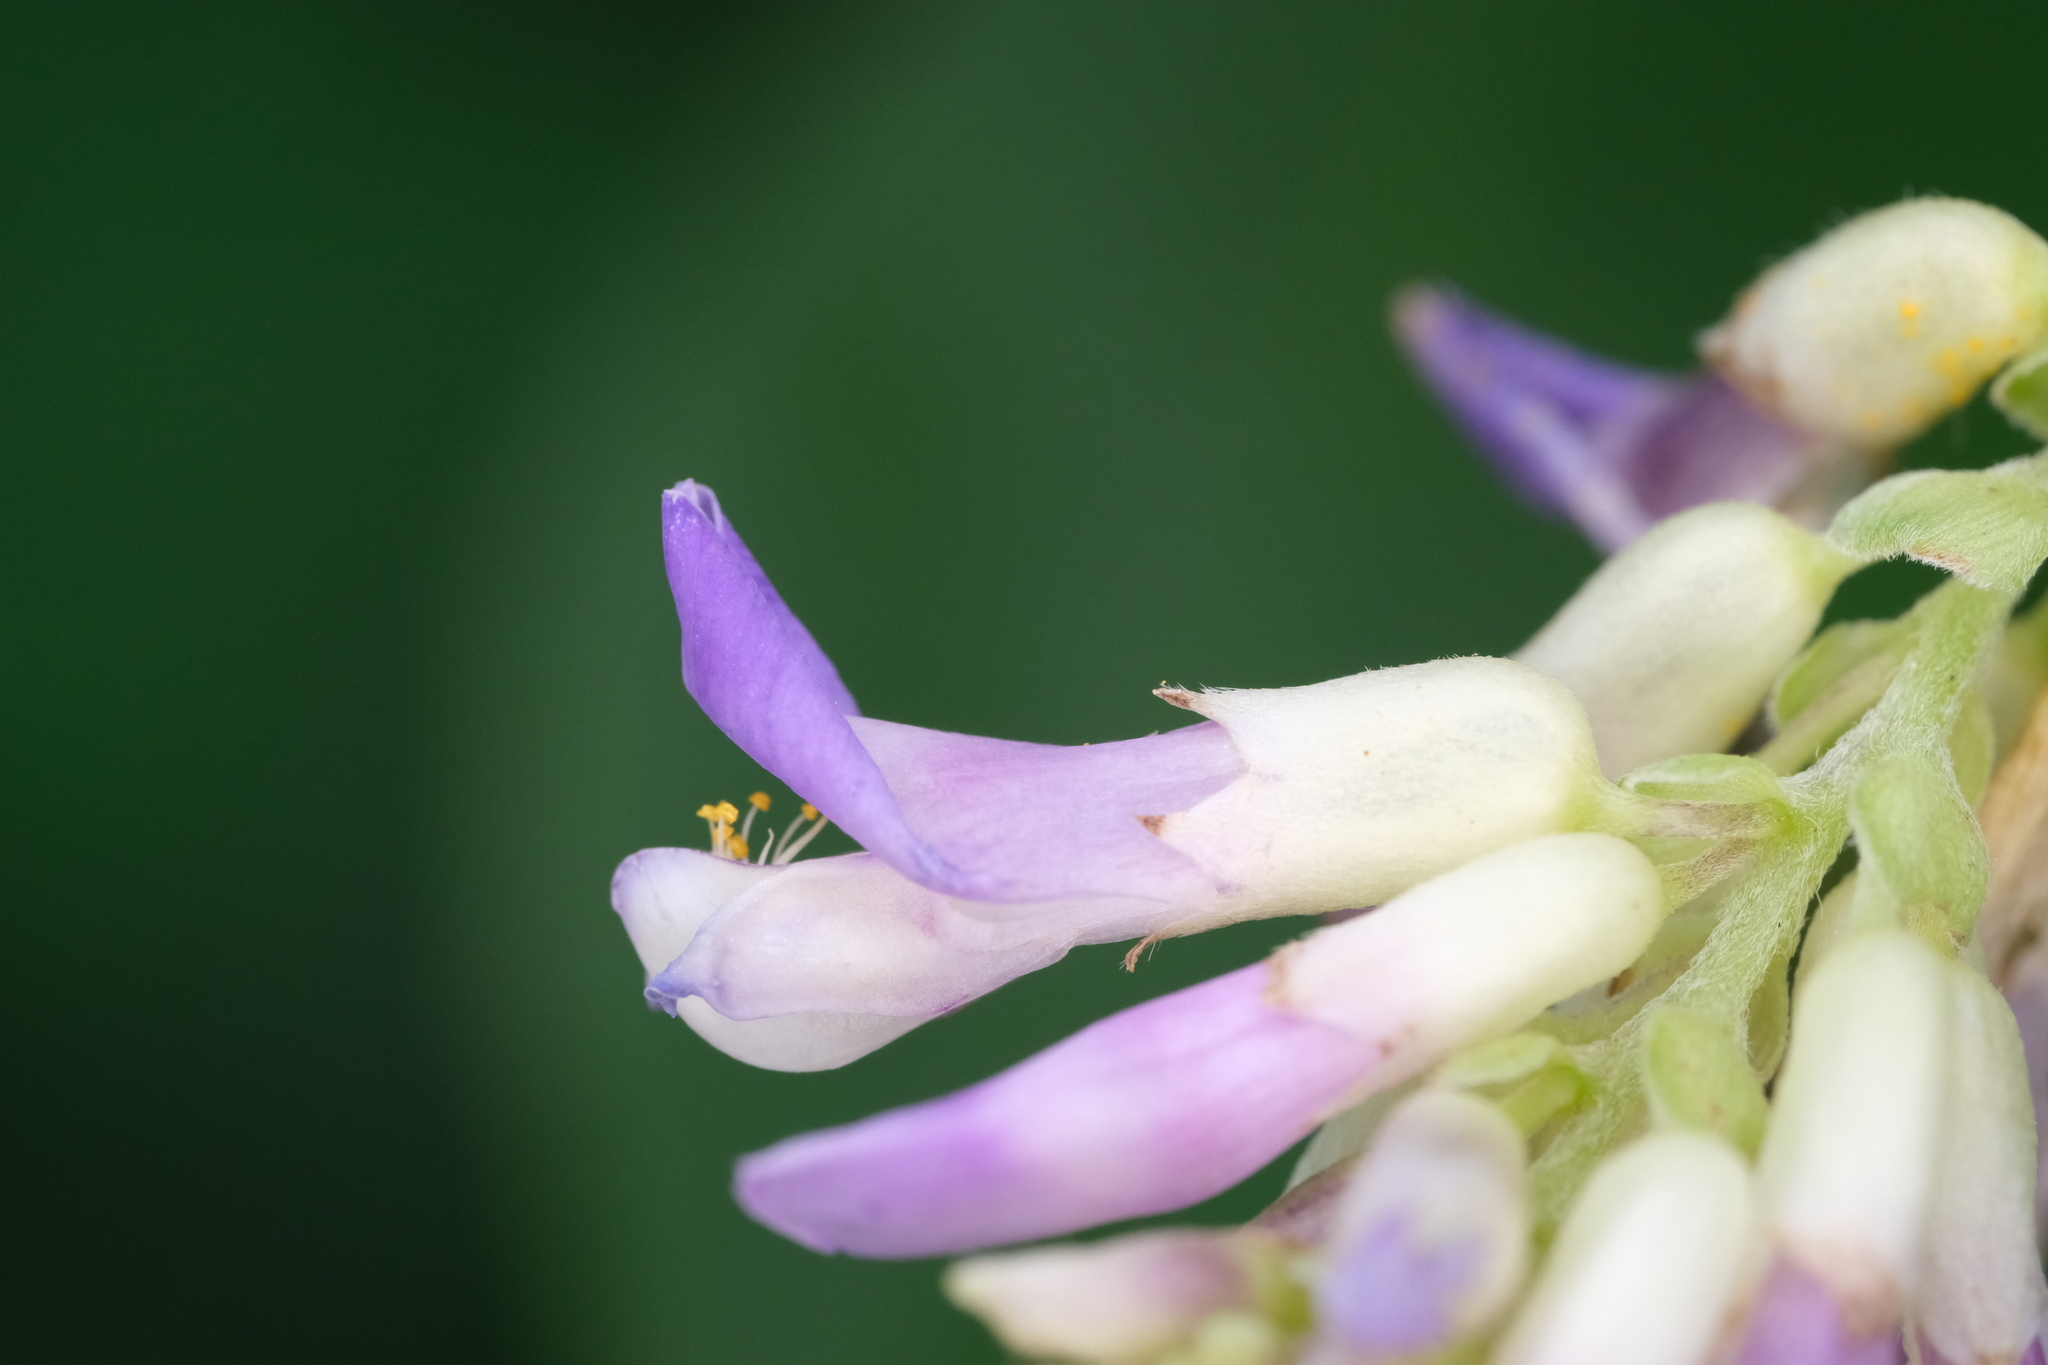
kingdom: Plantae
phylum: Tracheophyta
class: Magnoliopsida
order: Fabales
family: Fabaceae
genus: Amphicarpaea
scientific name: Amphicarpaea bracteata
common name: American hog peanut
